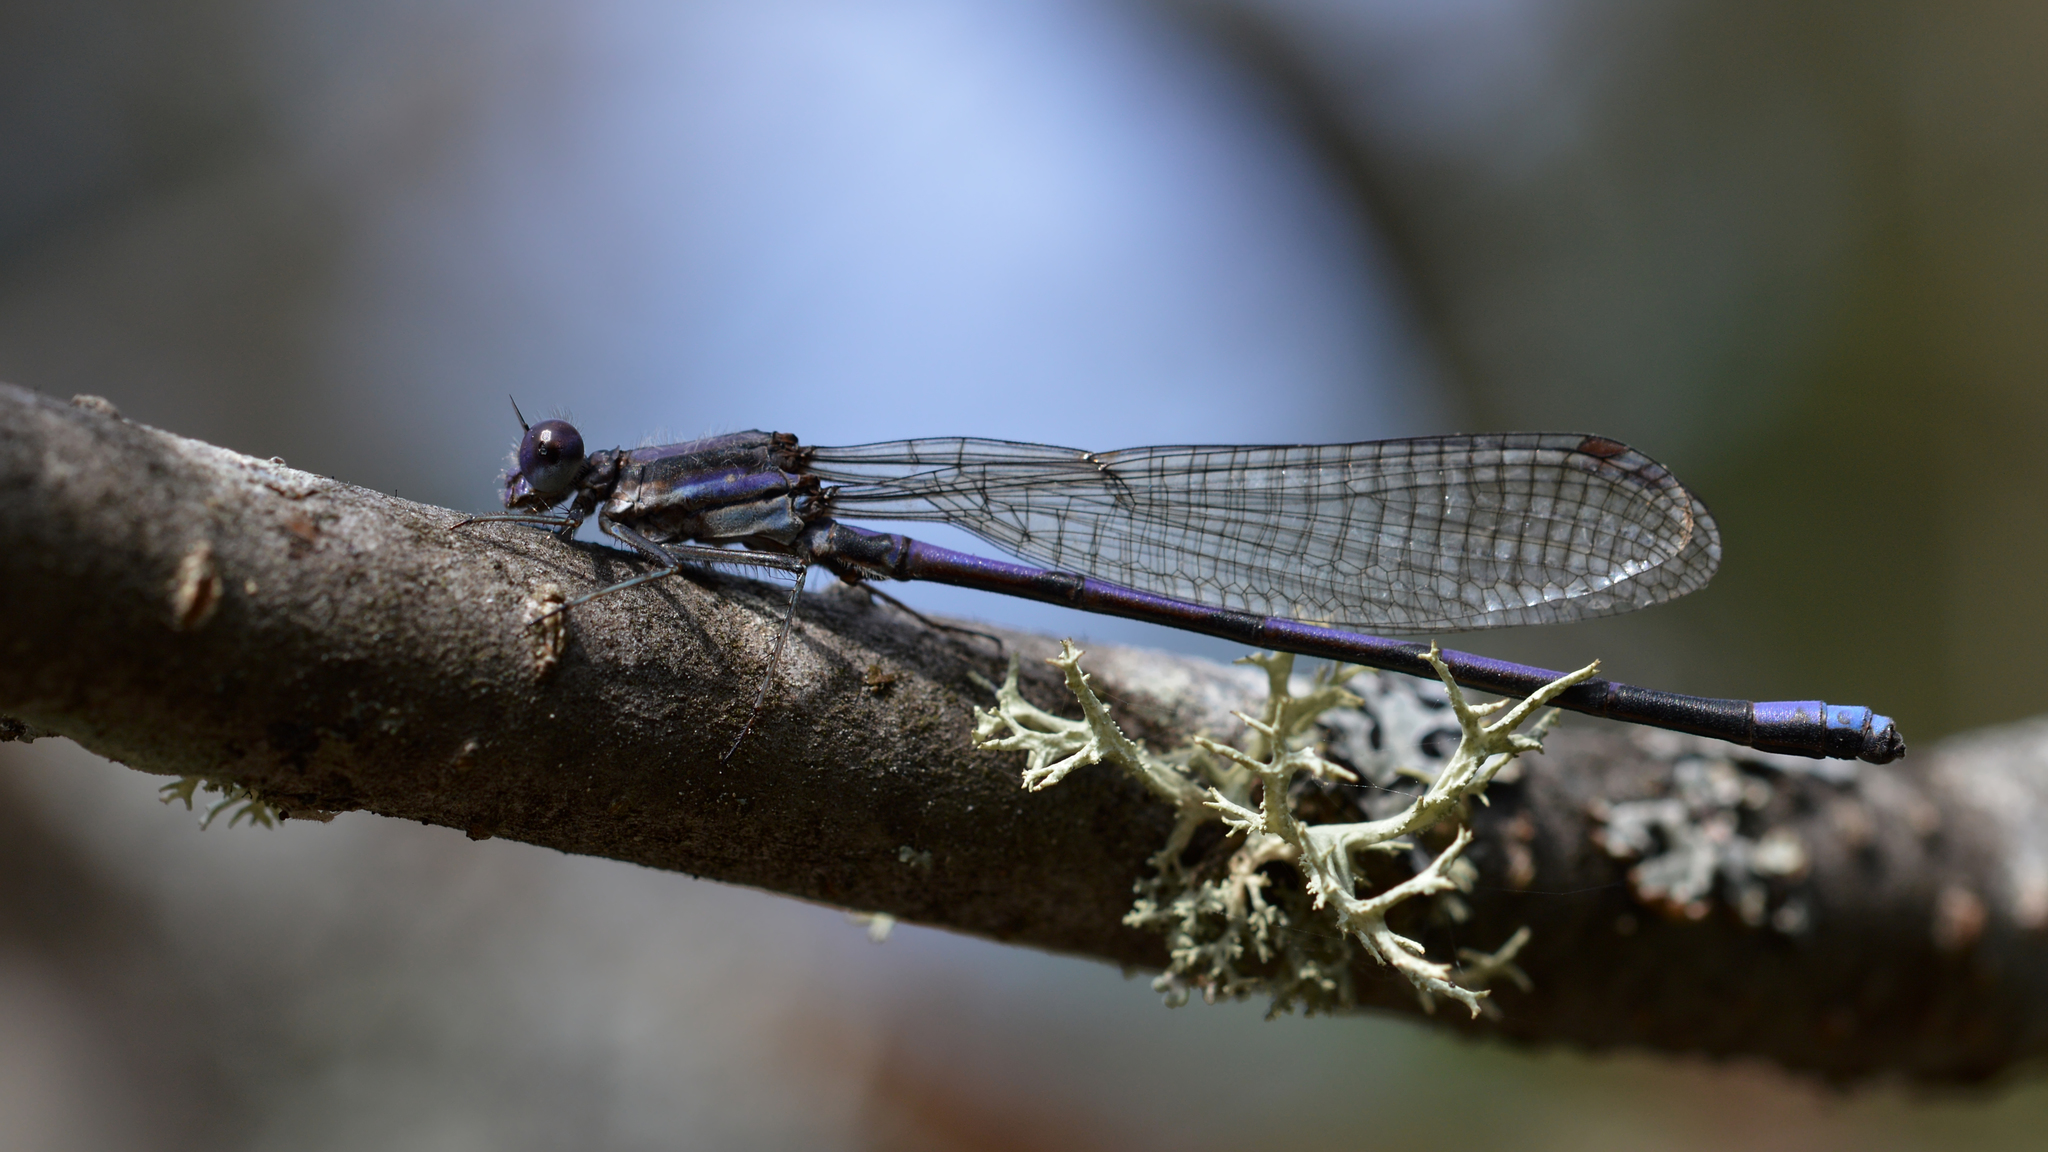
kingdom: Animalia
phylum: Arthropoda
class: Insecta
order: Odonata
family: Coenagrionidae
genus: Argia
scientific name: Argia fumipennis
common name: Variable dancer
